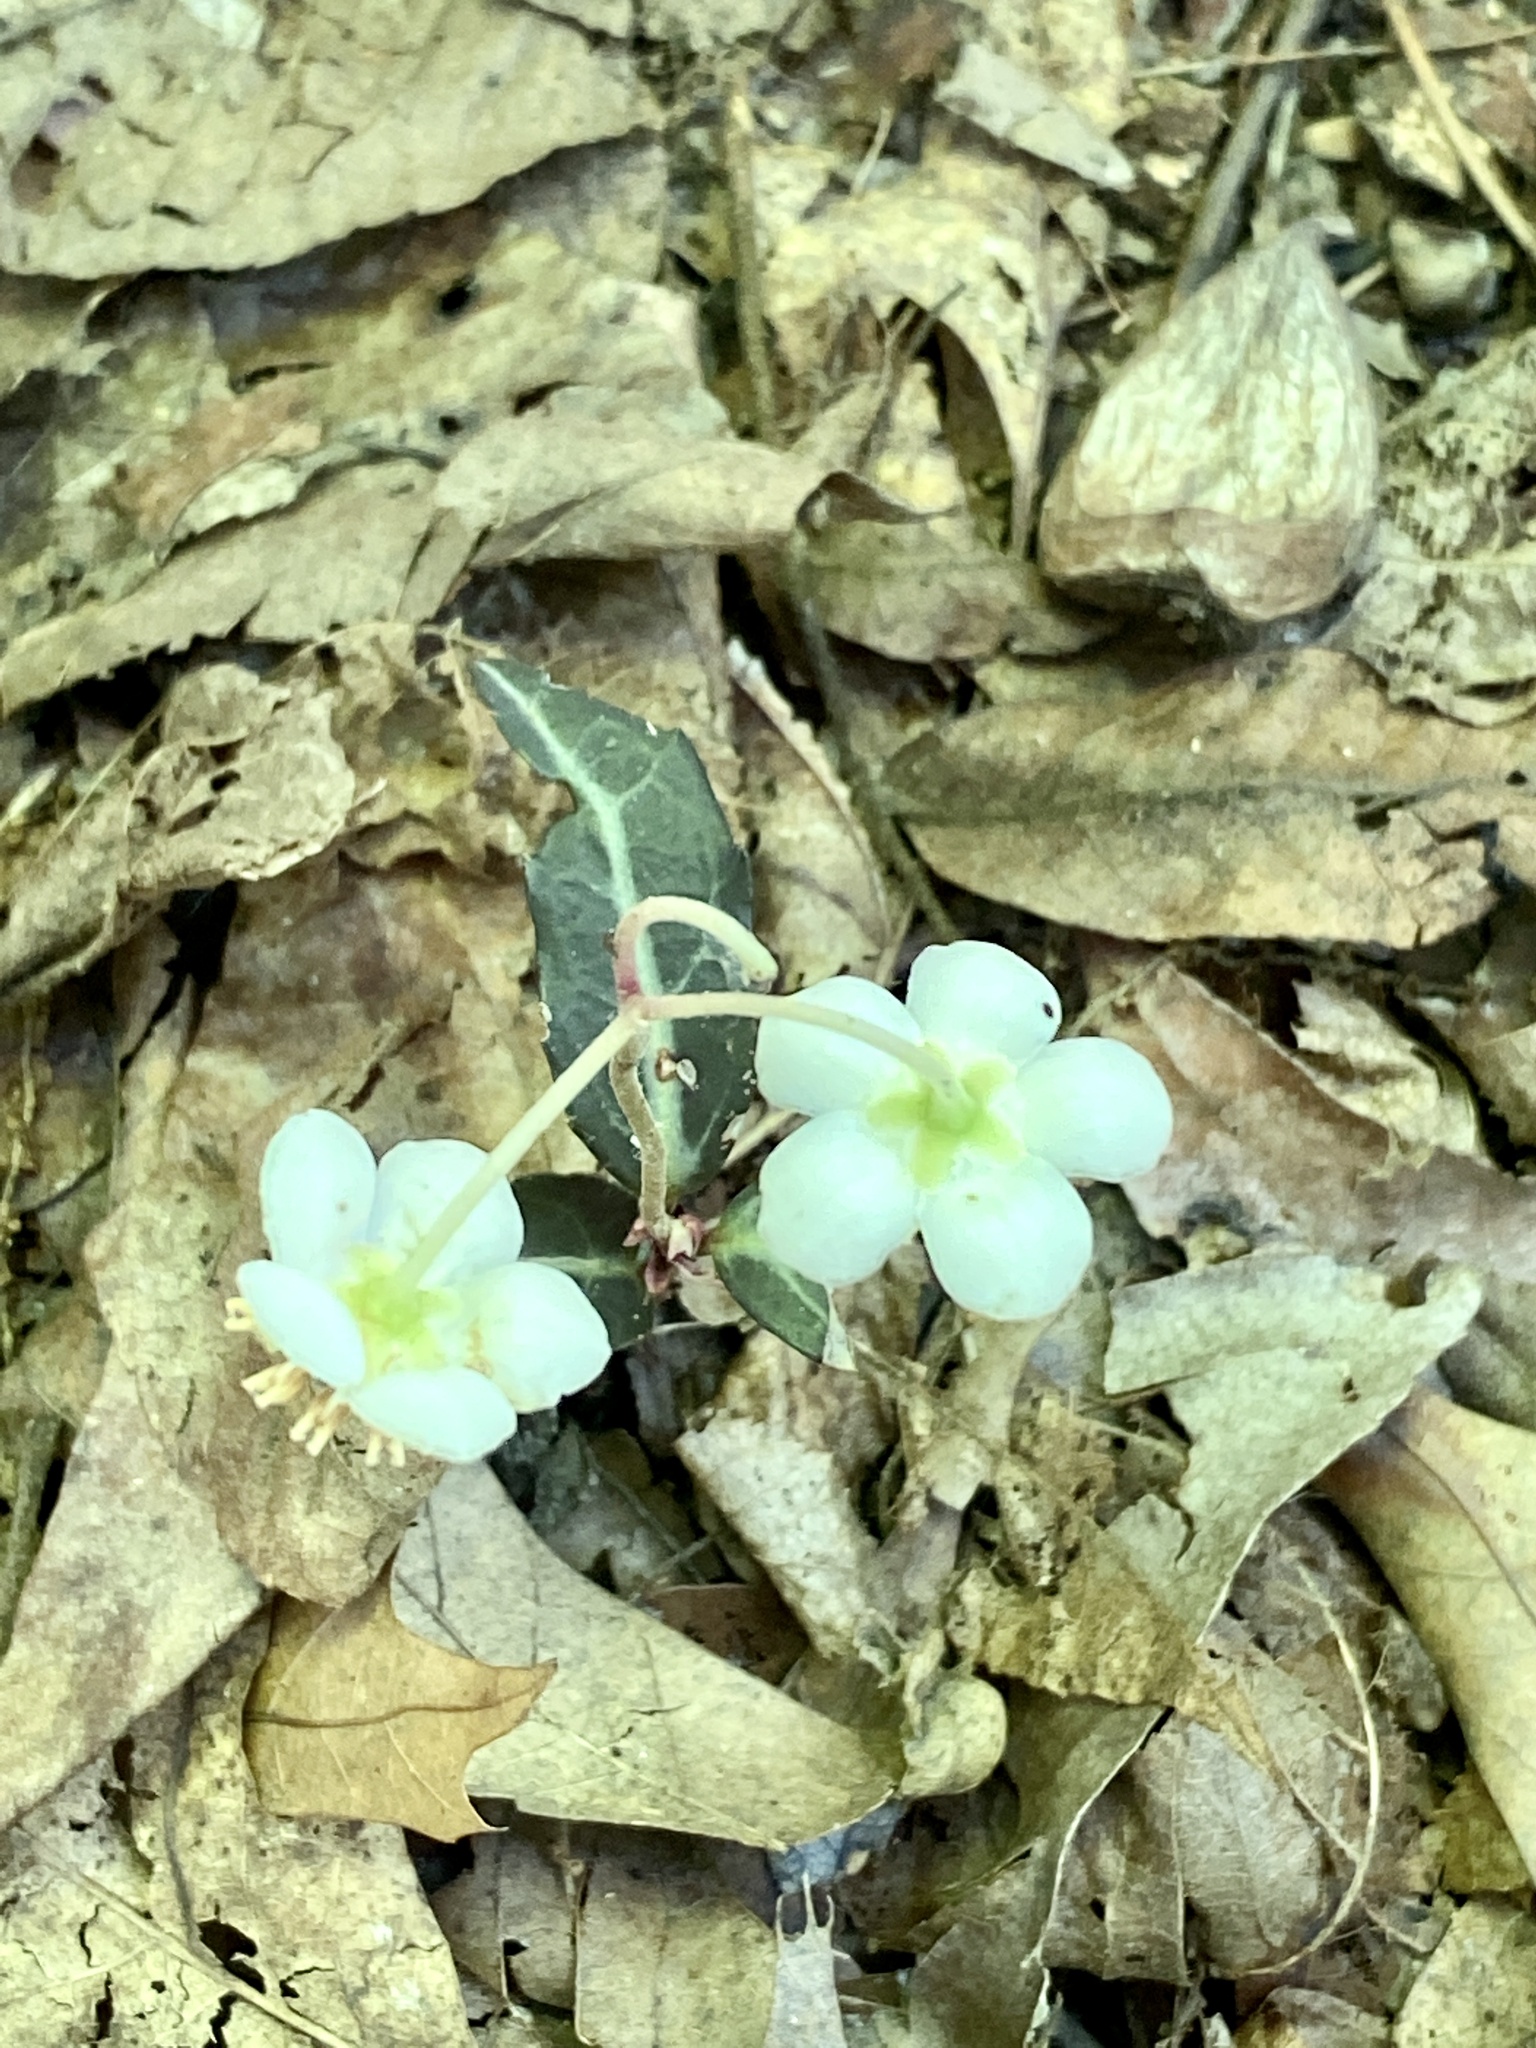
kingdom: Plantae
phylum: Tracheophyta
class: Magnoliopsida
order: Ericales
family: Ericaceae
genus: Chimaphila
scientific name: Chimaphila maculata
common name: Spotted pipsissewa
